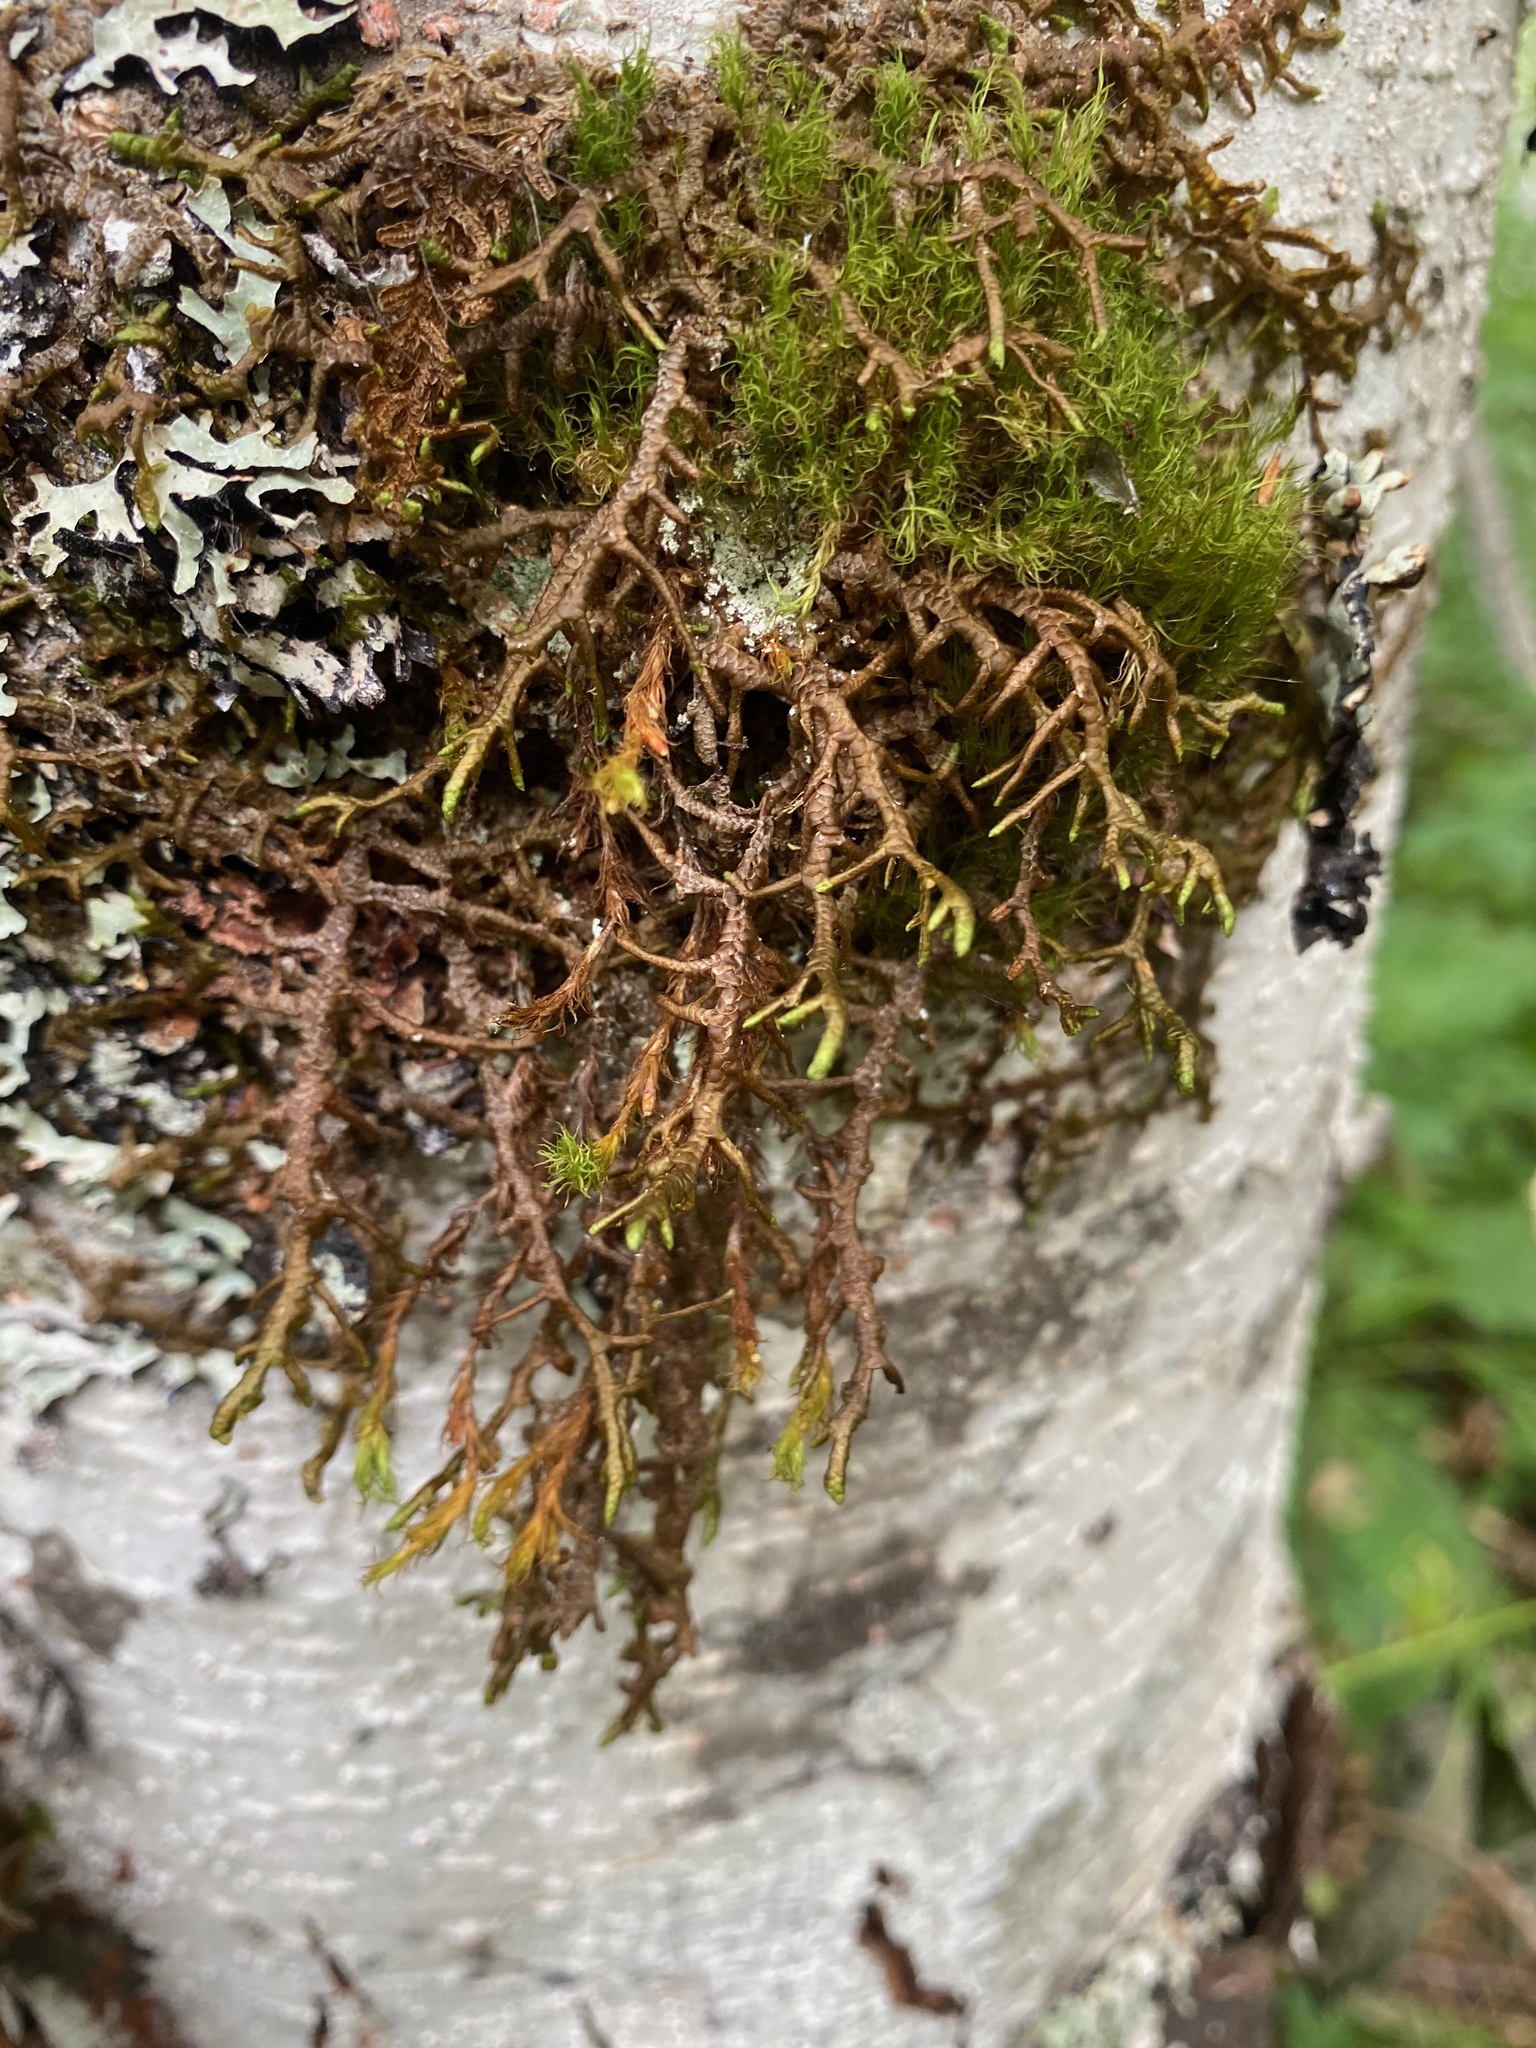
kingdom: Plantae
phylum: Marchantiophyta
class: Jungermanniopsida
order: Porellales
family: Porellaceae
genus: Porella
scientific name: Porella navicularis
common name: Tree ruffle liverwort
